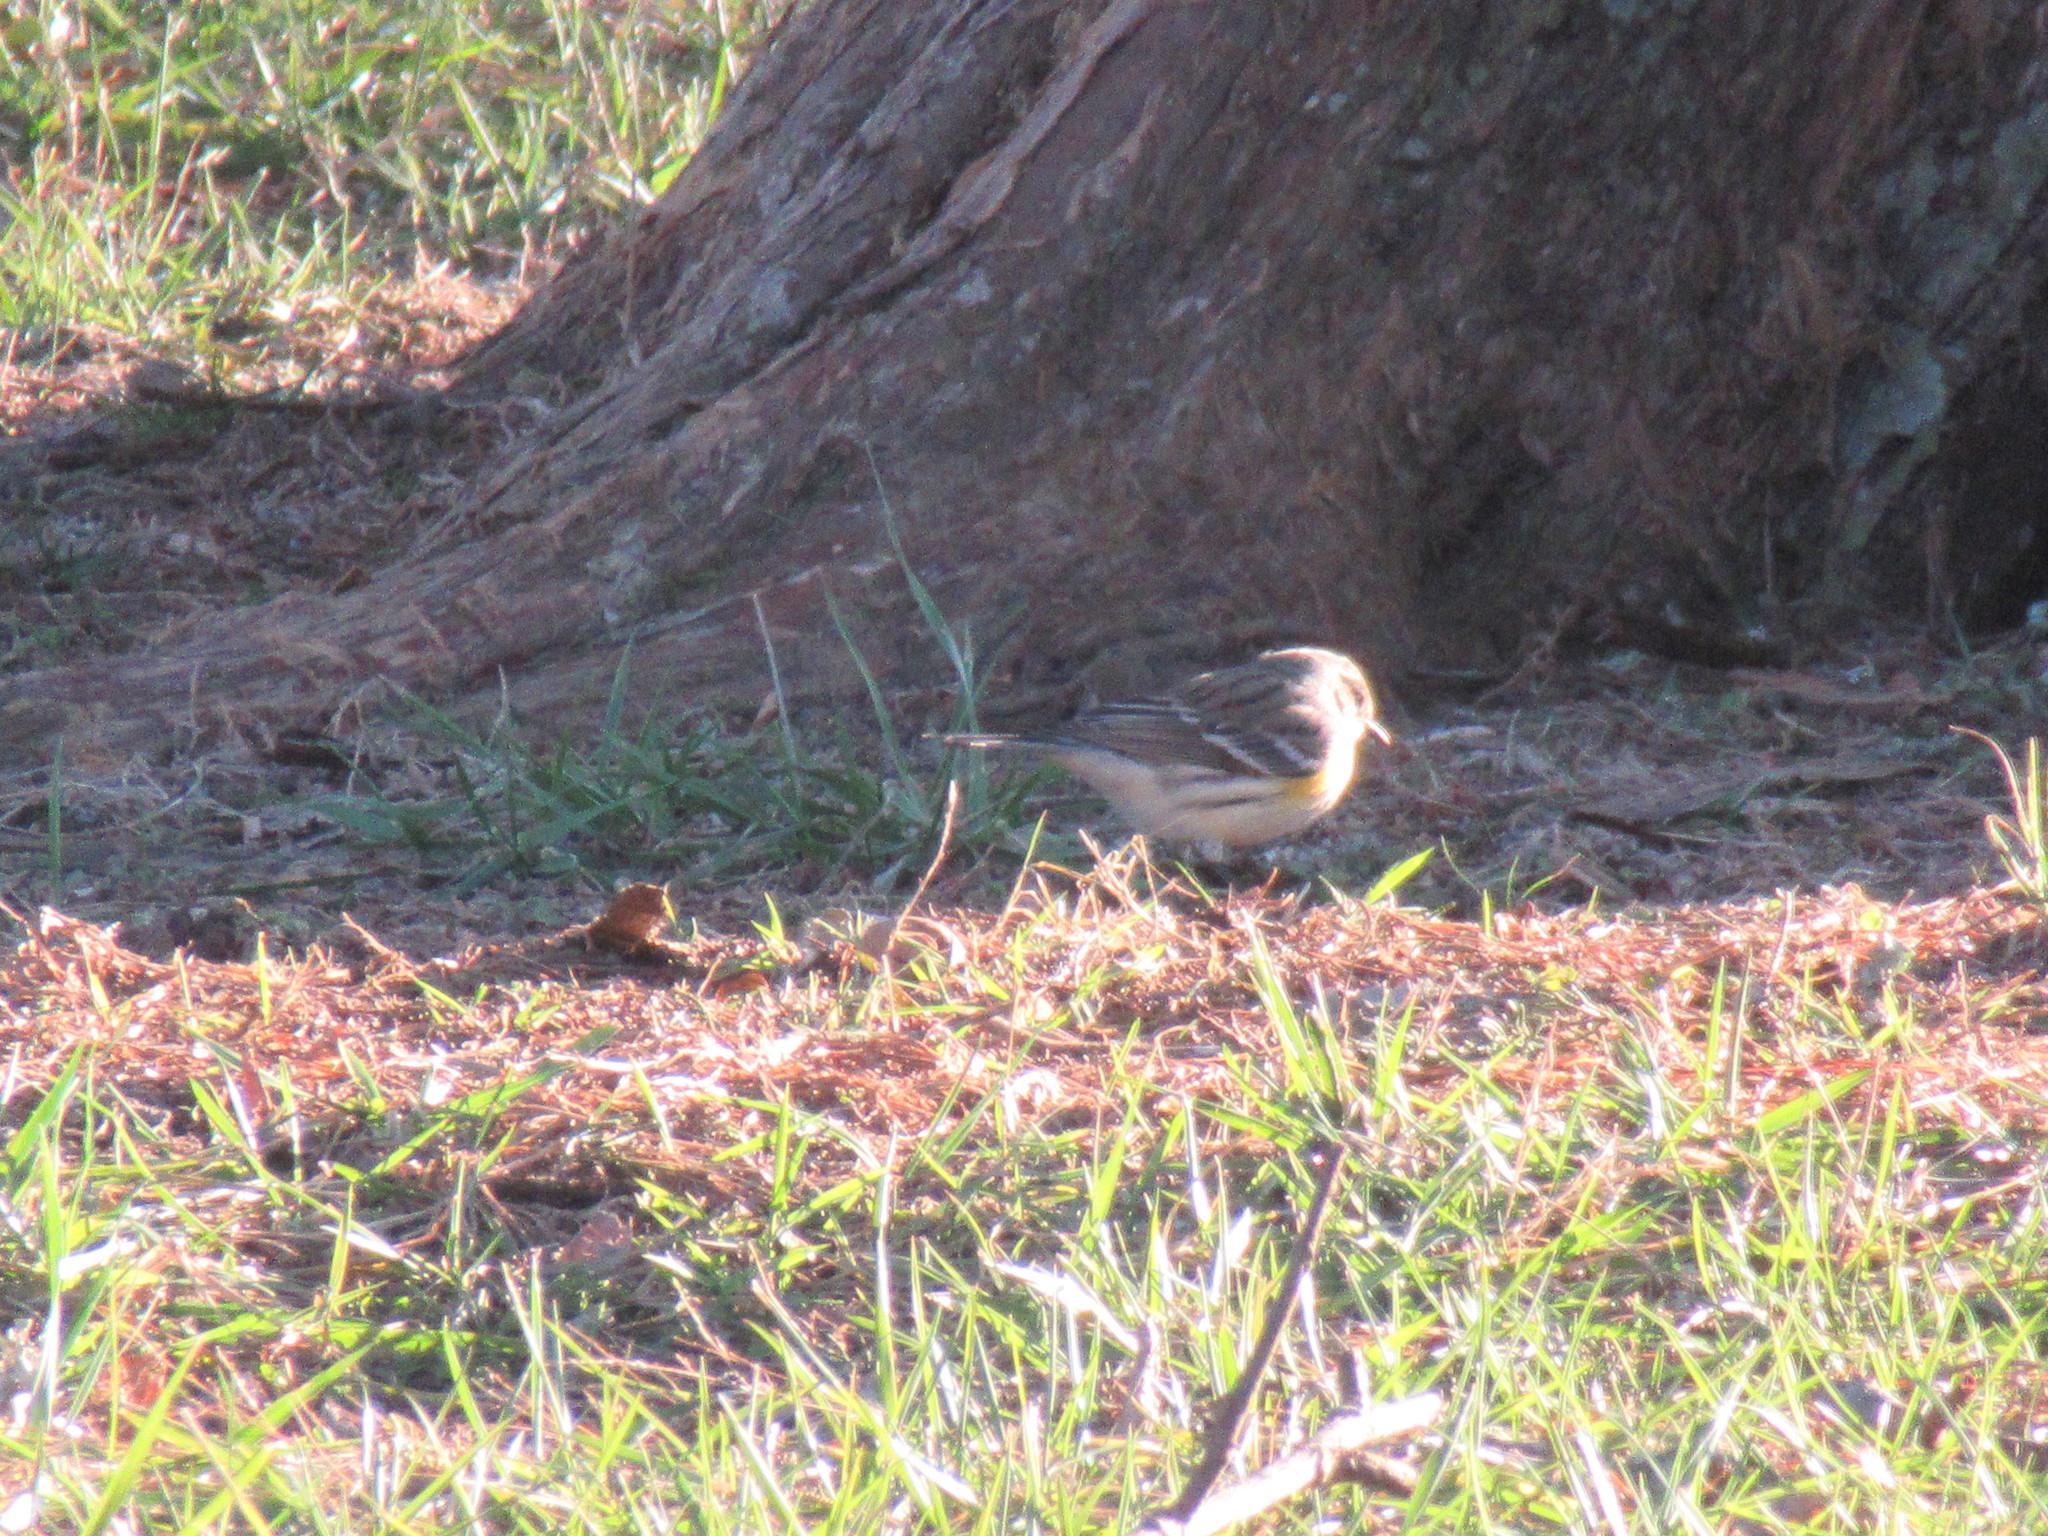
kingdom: Animalia
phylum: Chordata
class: Aves
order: Passeriformes
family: Parulidae
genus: Setophaga
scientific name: Setophaga coronata
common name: Myrtle warbler
